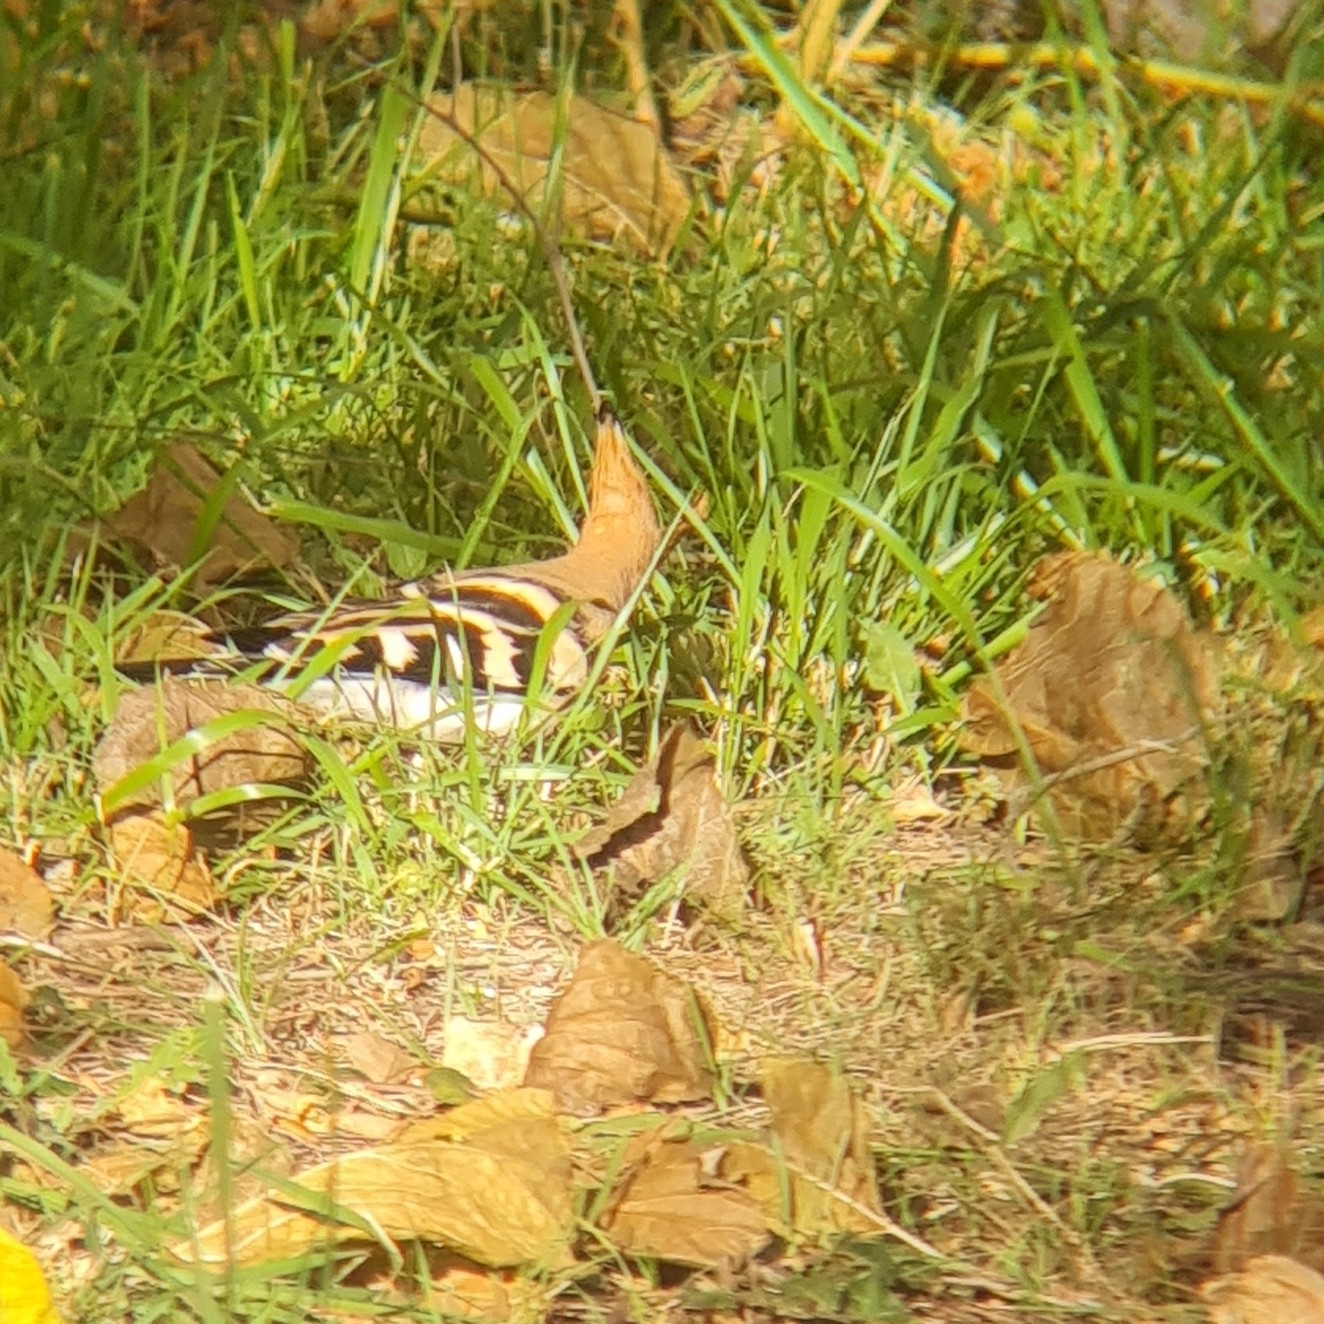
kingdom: Animalia
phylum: Chordata
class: Aves
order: Bucerotiformes
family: Upupidae
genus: Upupa
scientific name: Upupa epops
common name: Eurasian hoopoe
